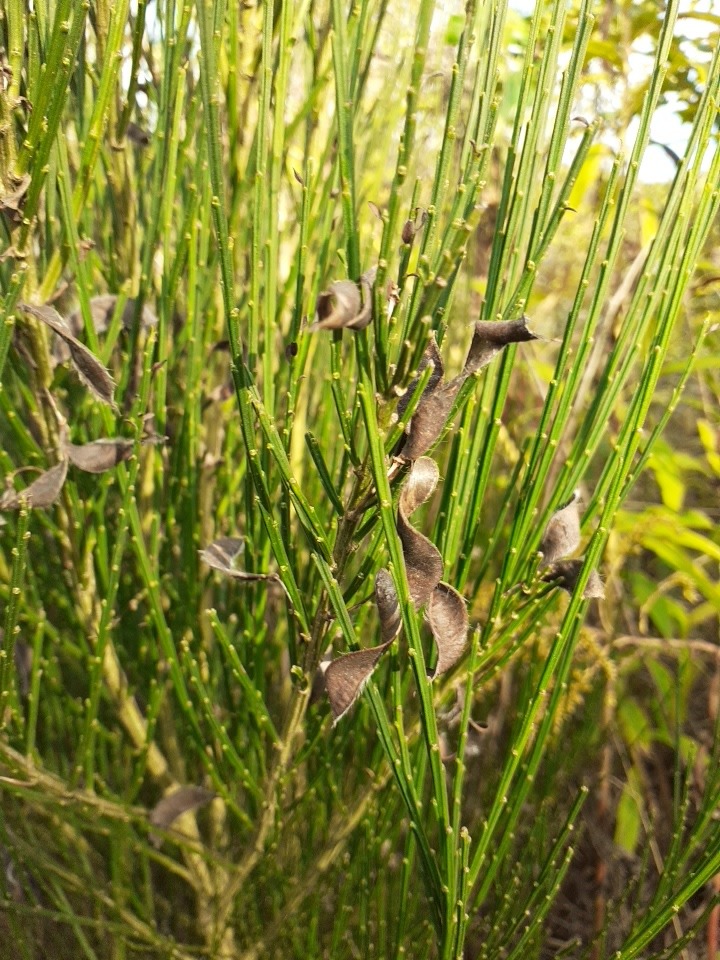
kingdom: Plantae
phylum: Tracheophyta
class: Magnoliopsida
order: Fabales
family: Fabaceae
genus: Cytisus
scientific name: Cytisus scoparius
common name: Scotch broom
